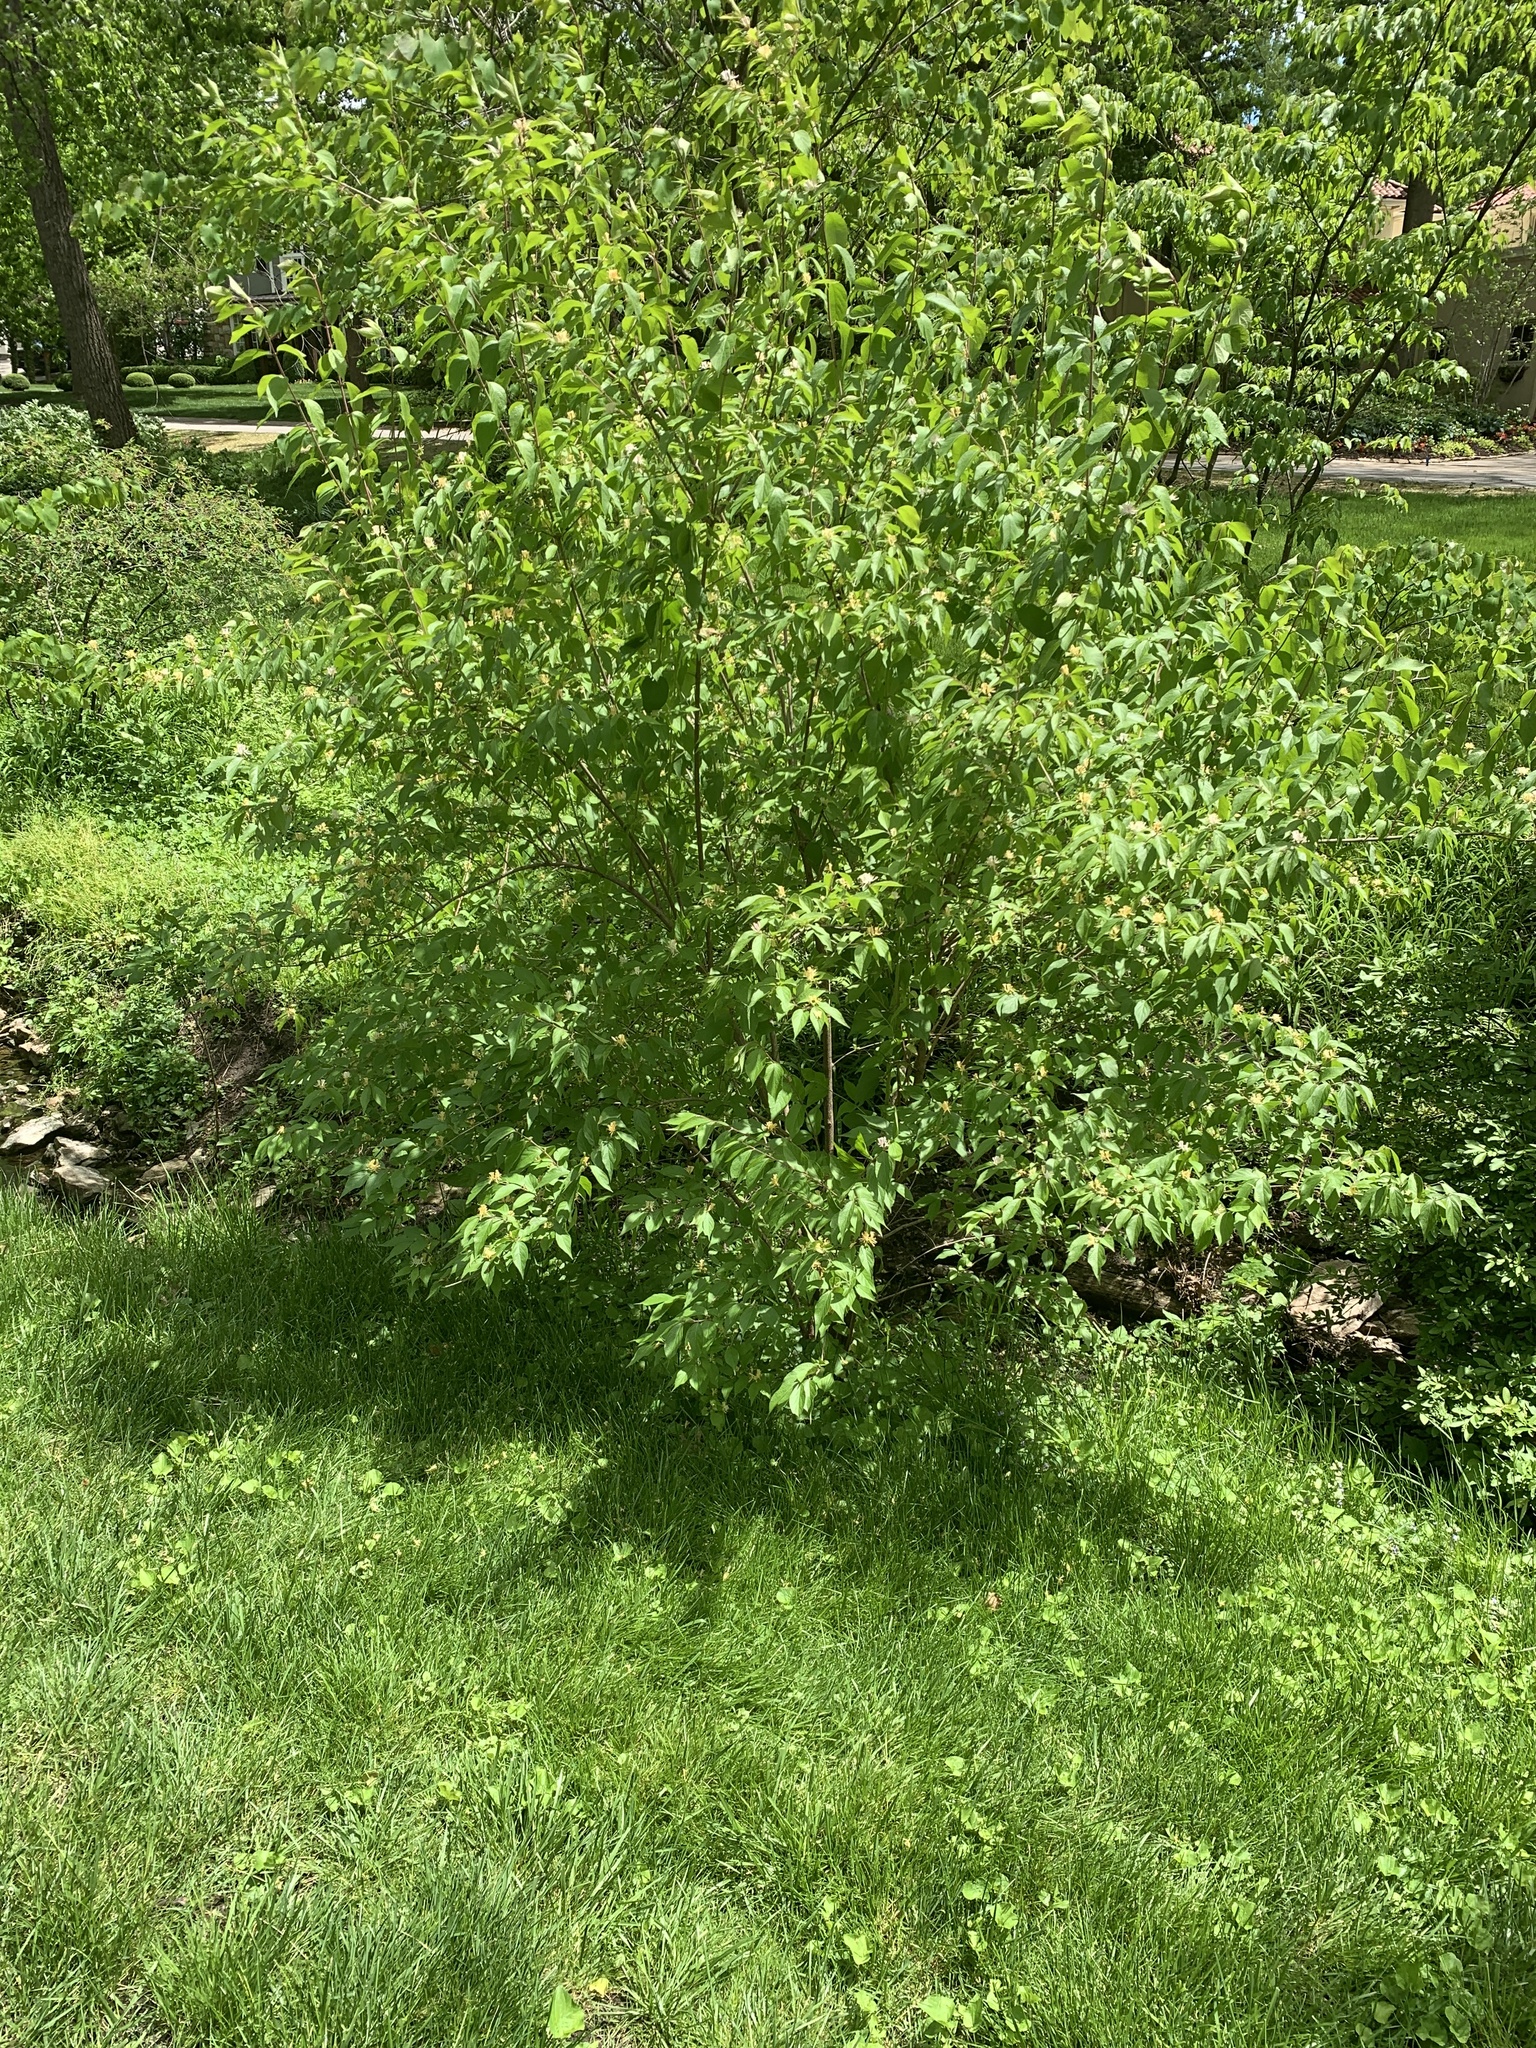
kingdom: Plantae
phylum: Tracheophyta
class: Magnoliopsida
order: Sapindales
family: Sapindaceae
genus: Acer
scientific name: Acer tataricum
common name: Tartar maple
